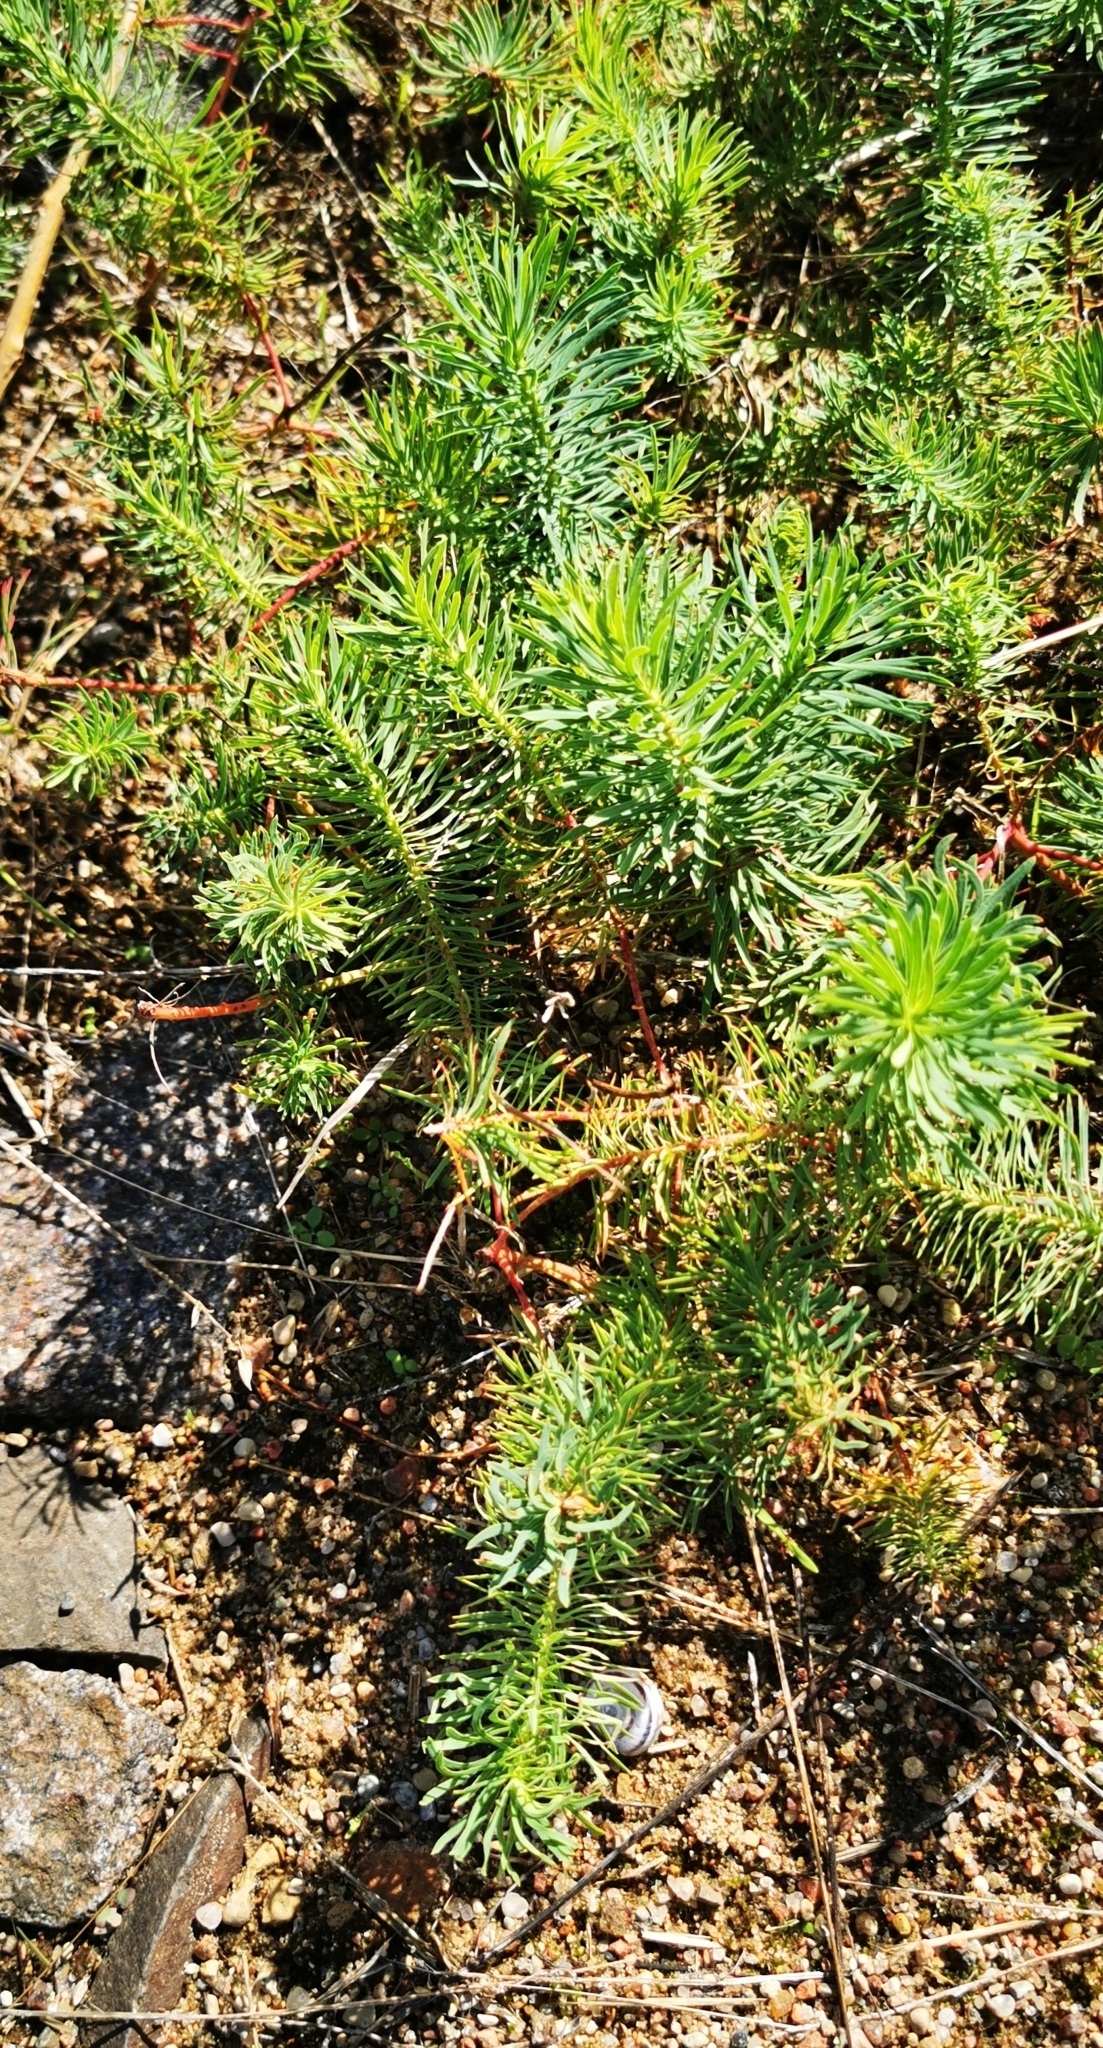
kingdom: Plantae
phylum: Tracheophyta
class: Magnoliopsida
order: Malpighiales
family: Euphorbiaceae
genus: Euphorbia
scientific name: Euphorbia cyparissias
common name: Cypress spurge
